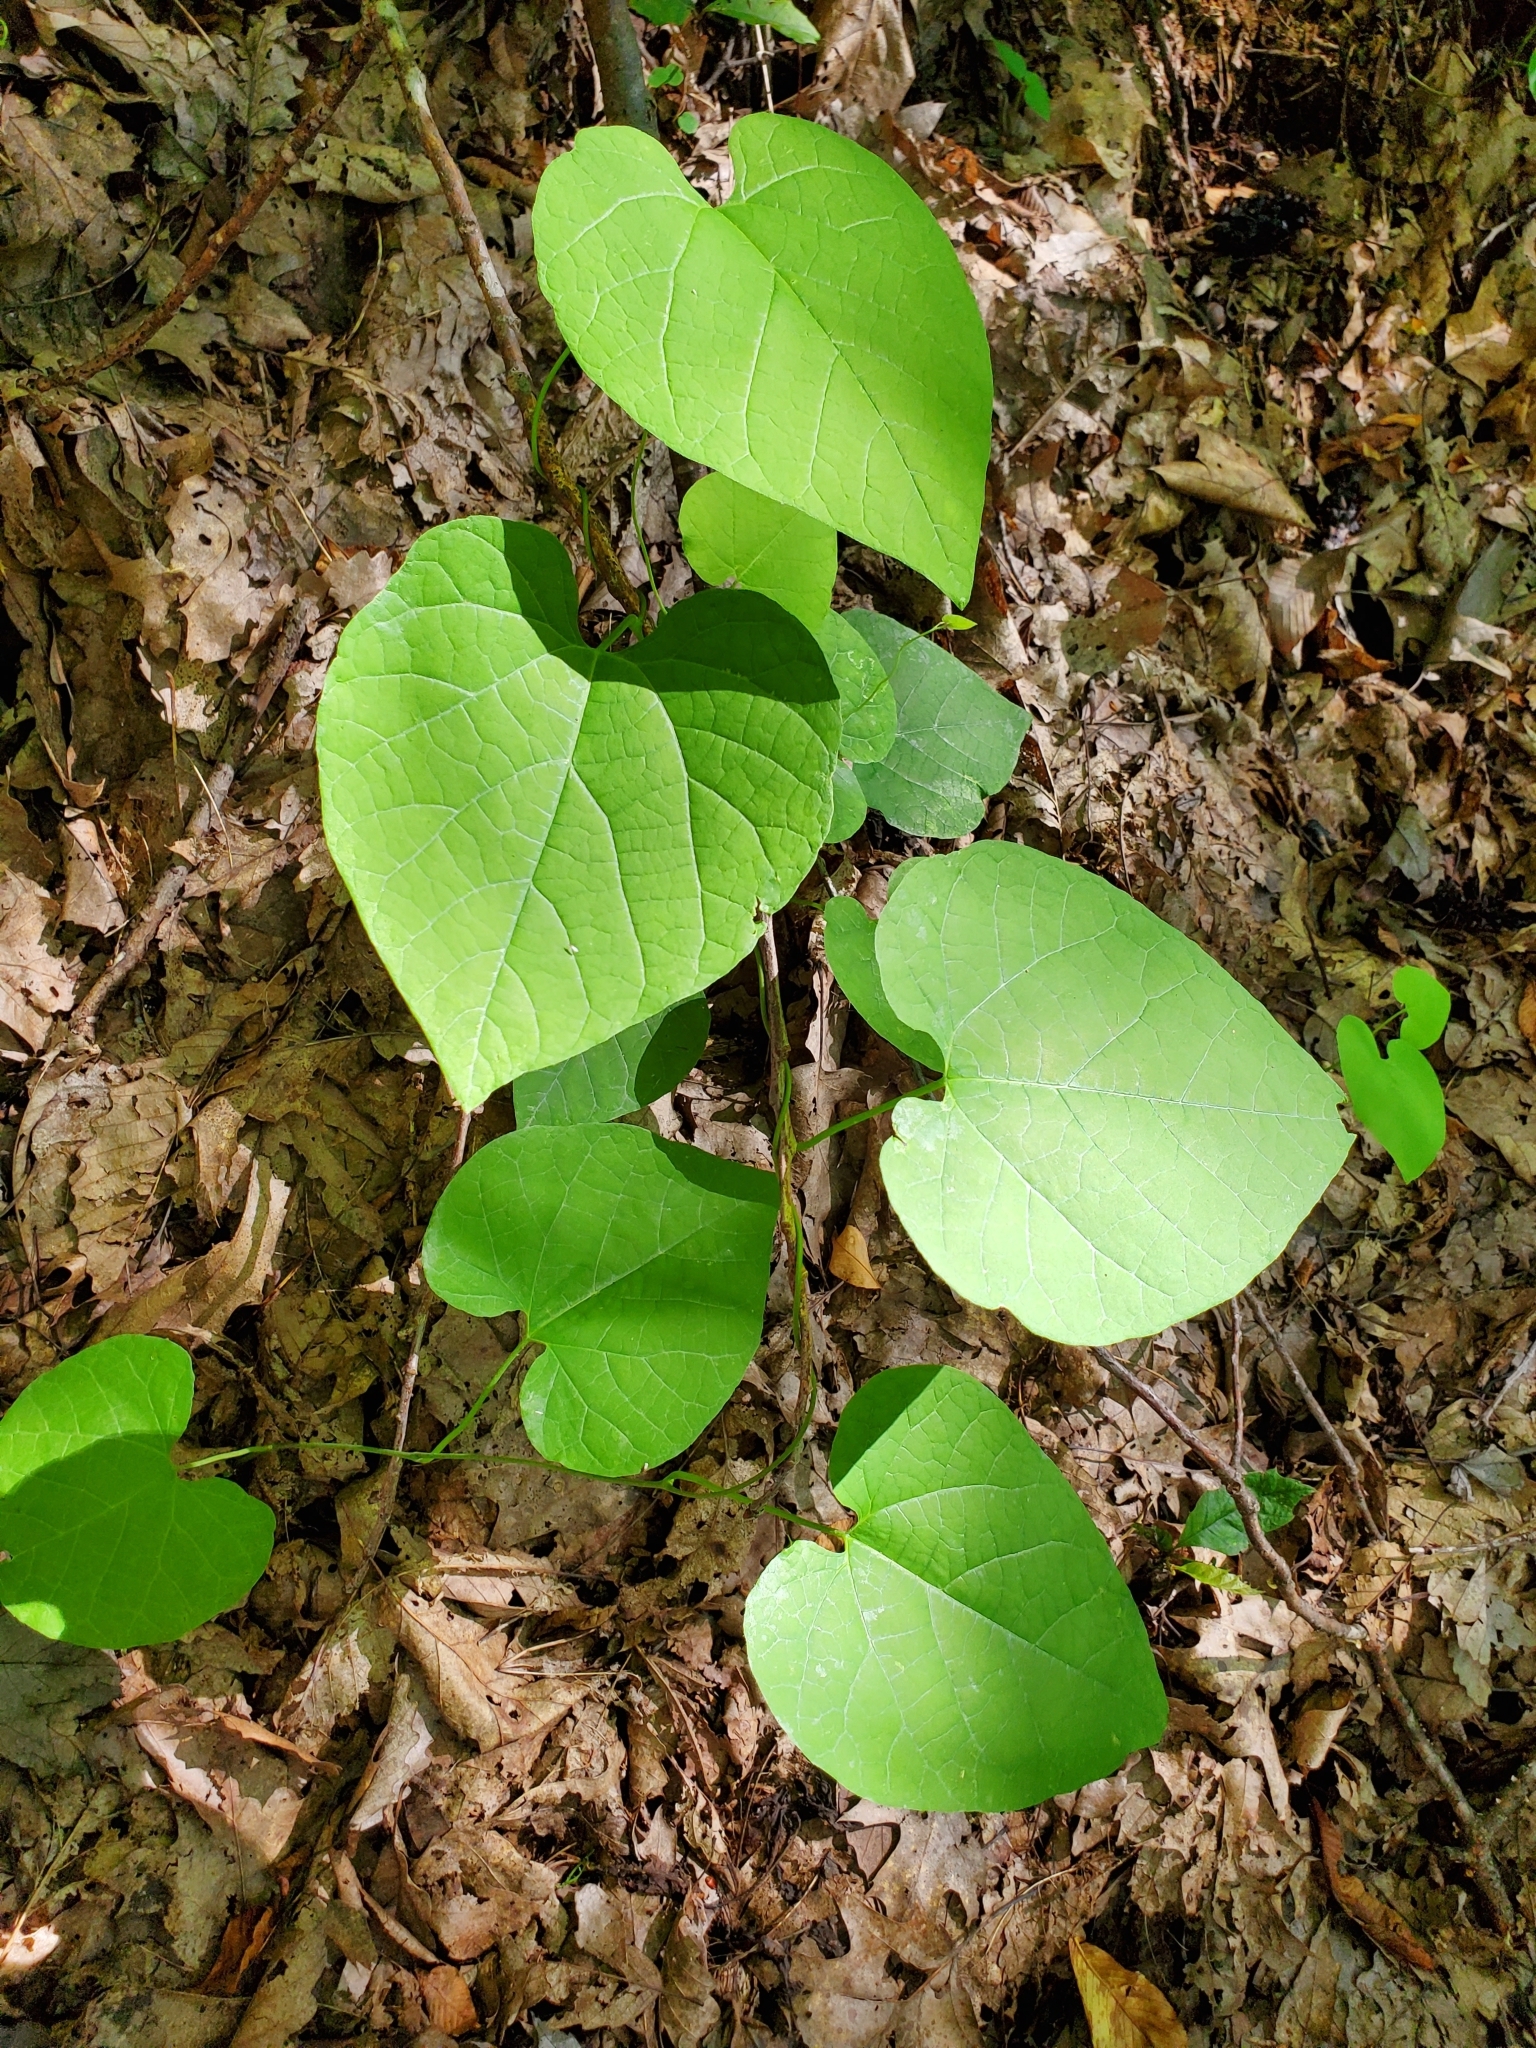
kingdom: Plantae
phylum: Tracheophyta
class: Magnoliopsida
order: Piperales
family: Aristolochiaceae
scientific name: Aristolochiaceae
